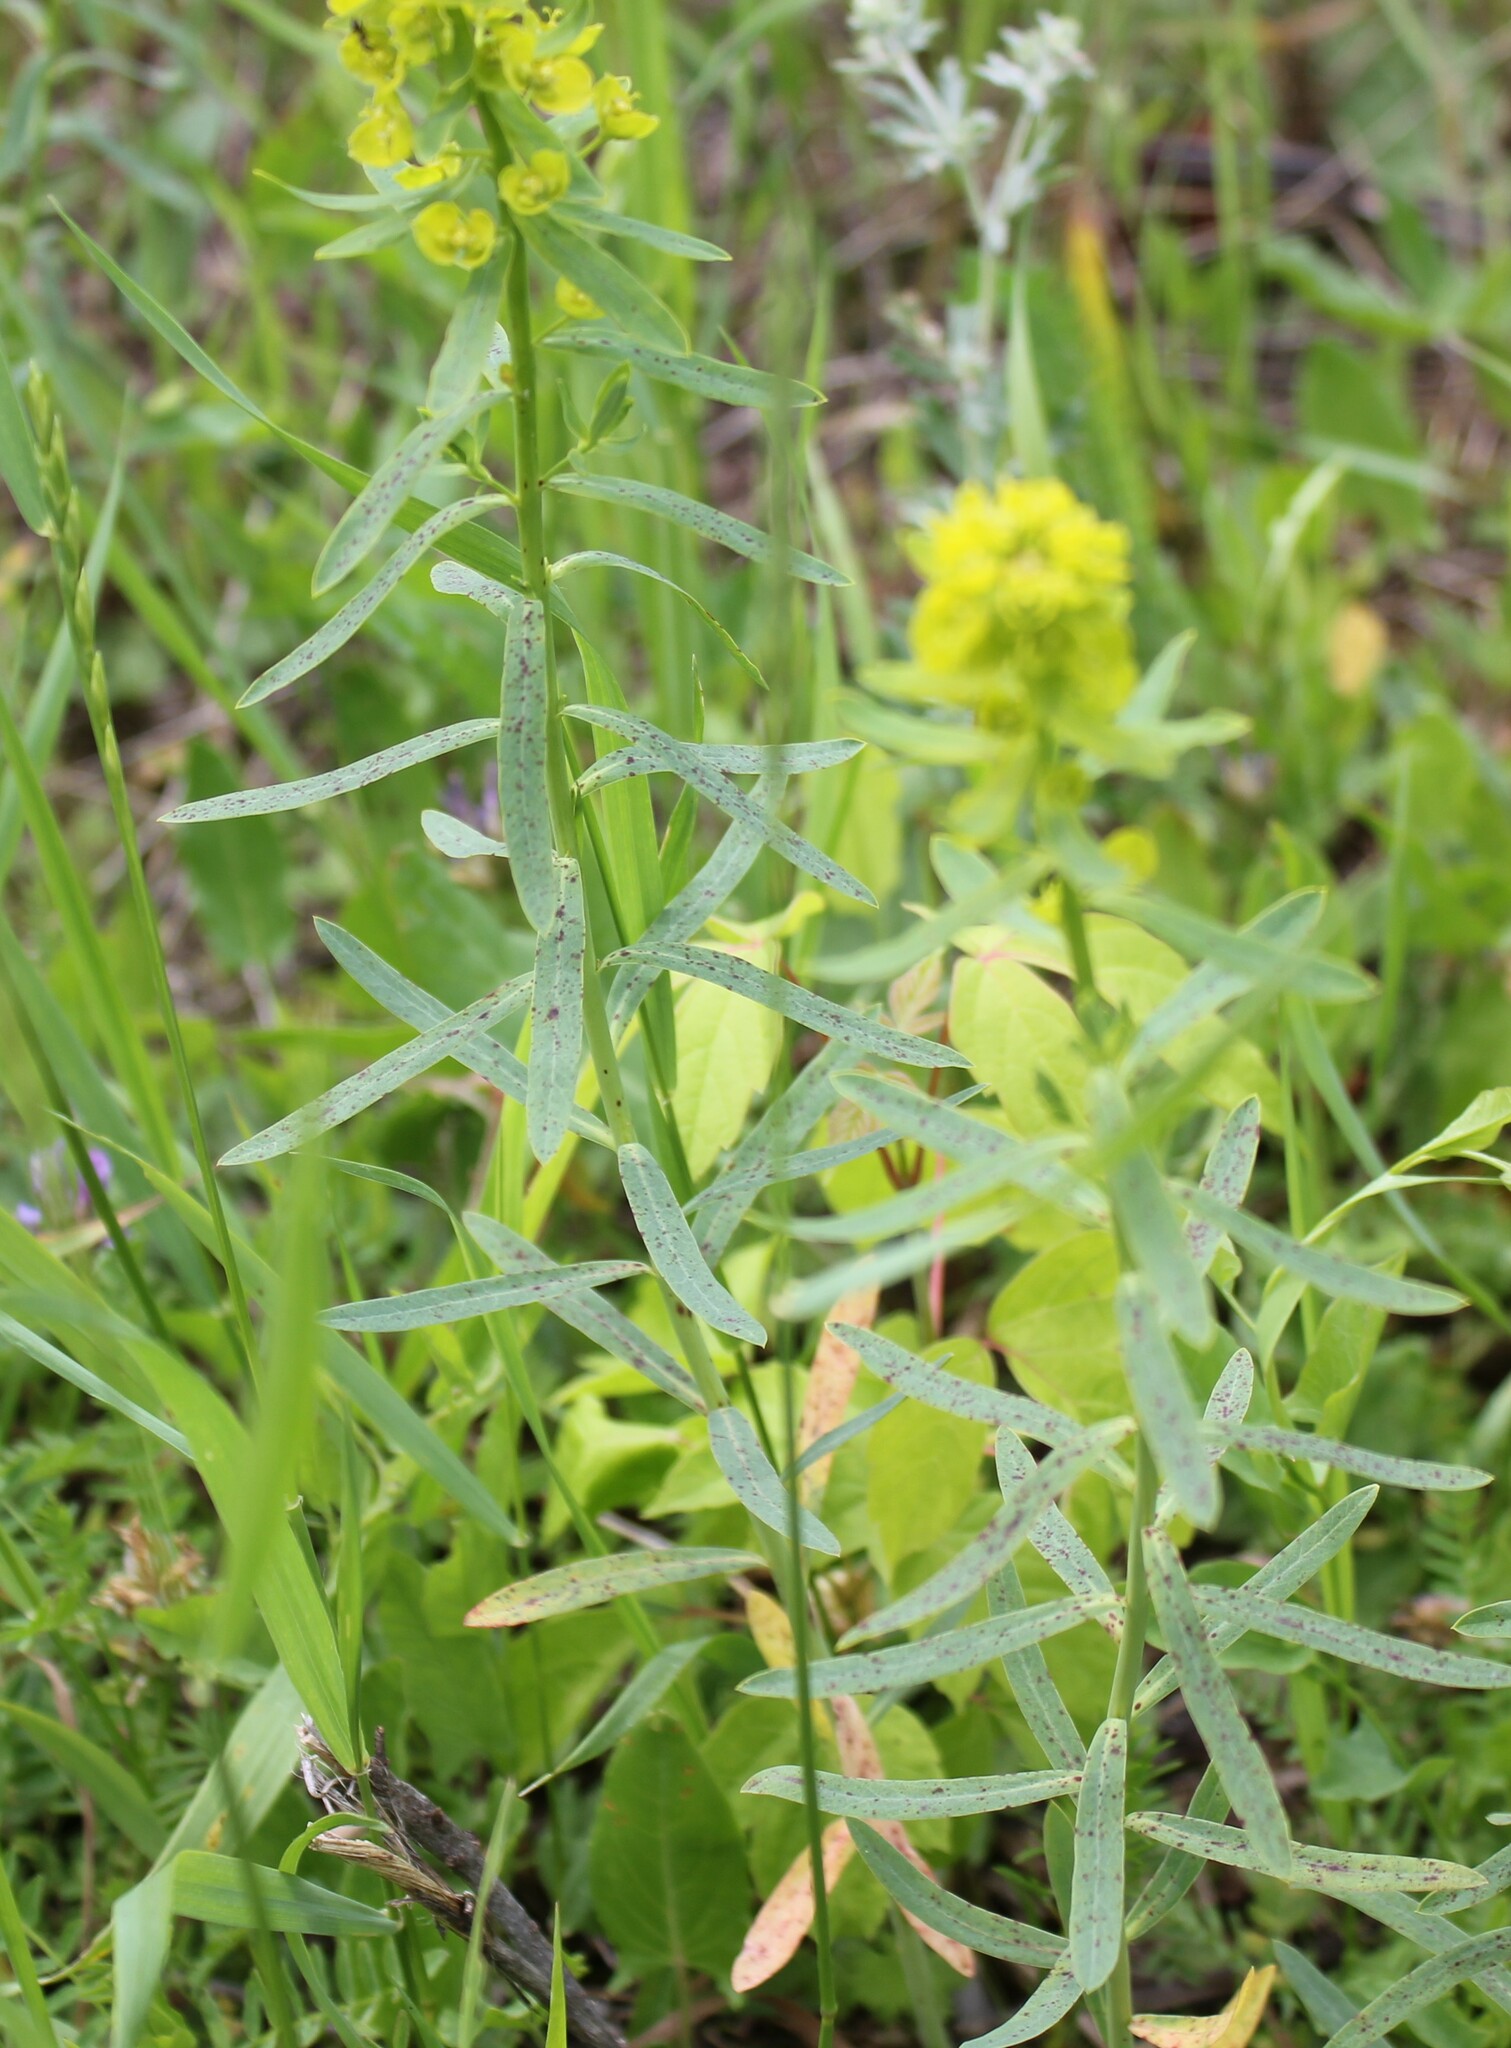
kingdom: Plantae
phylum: Tracheophyta
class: Magnoliopsida
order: Malpighiales
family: Euphorbiaceae
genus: Euphorbia
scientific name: Euphorbia virgata
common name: Leafy spurge
